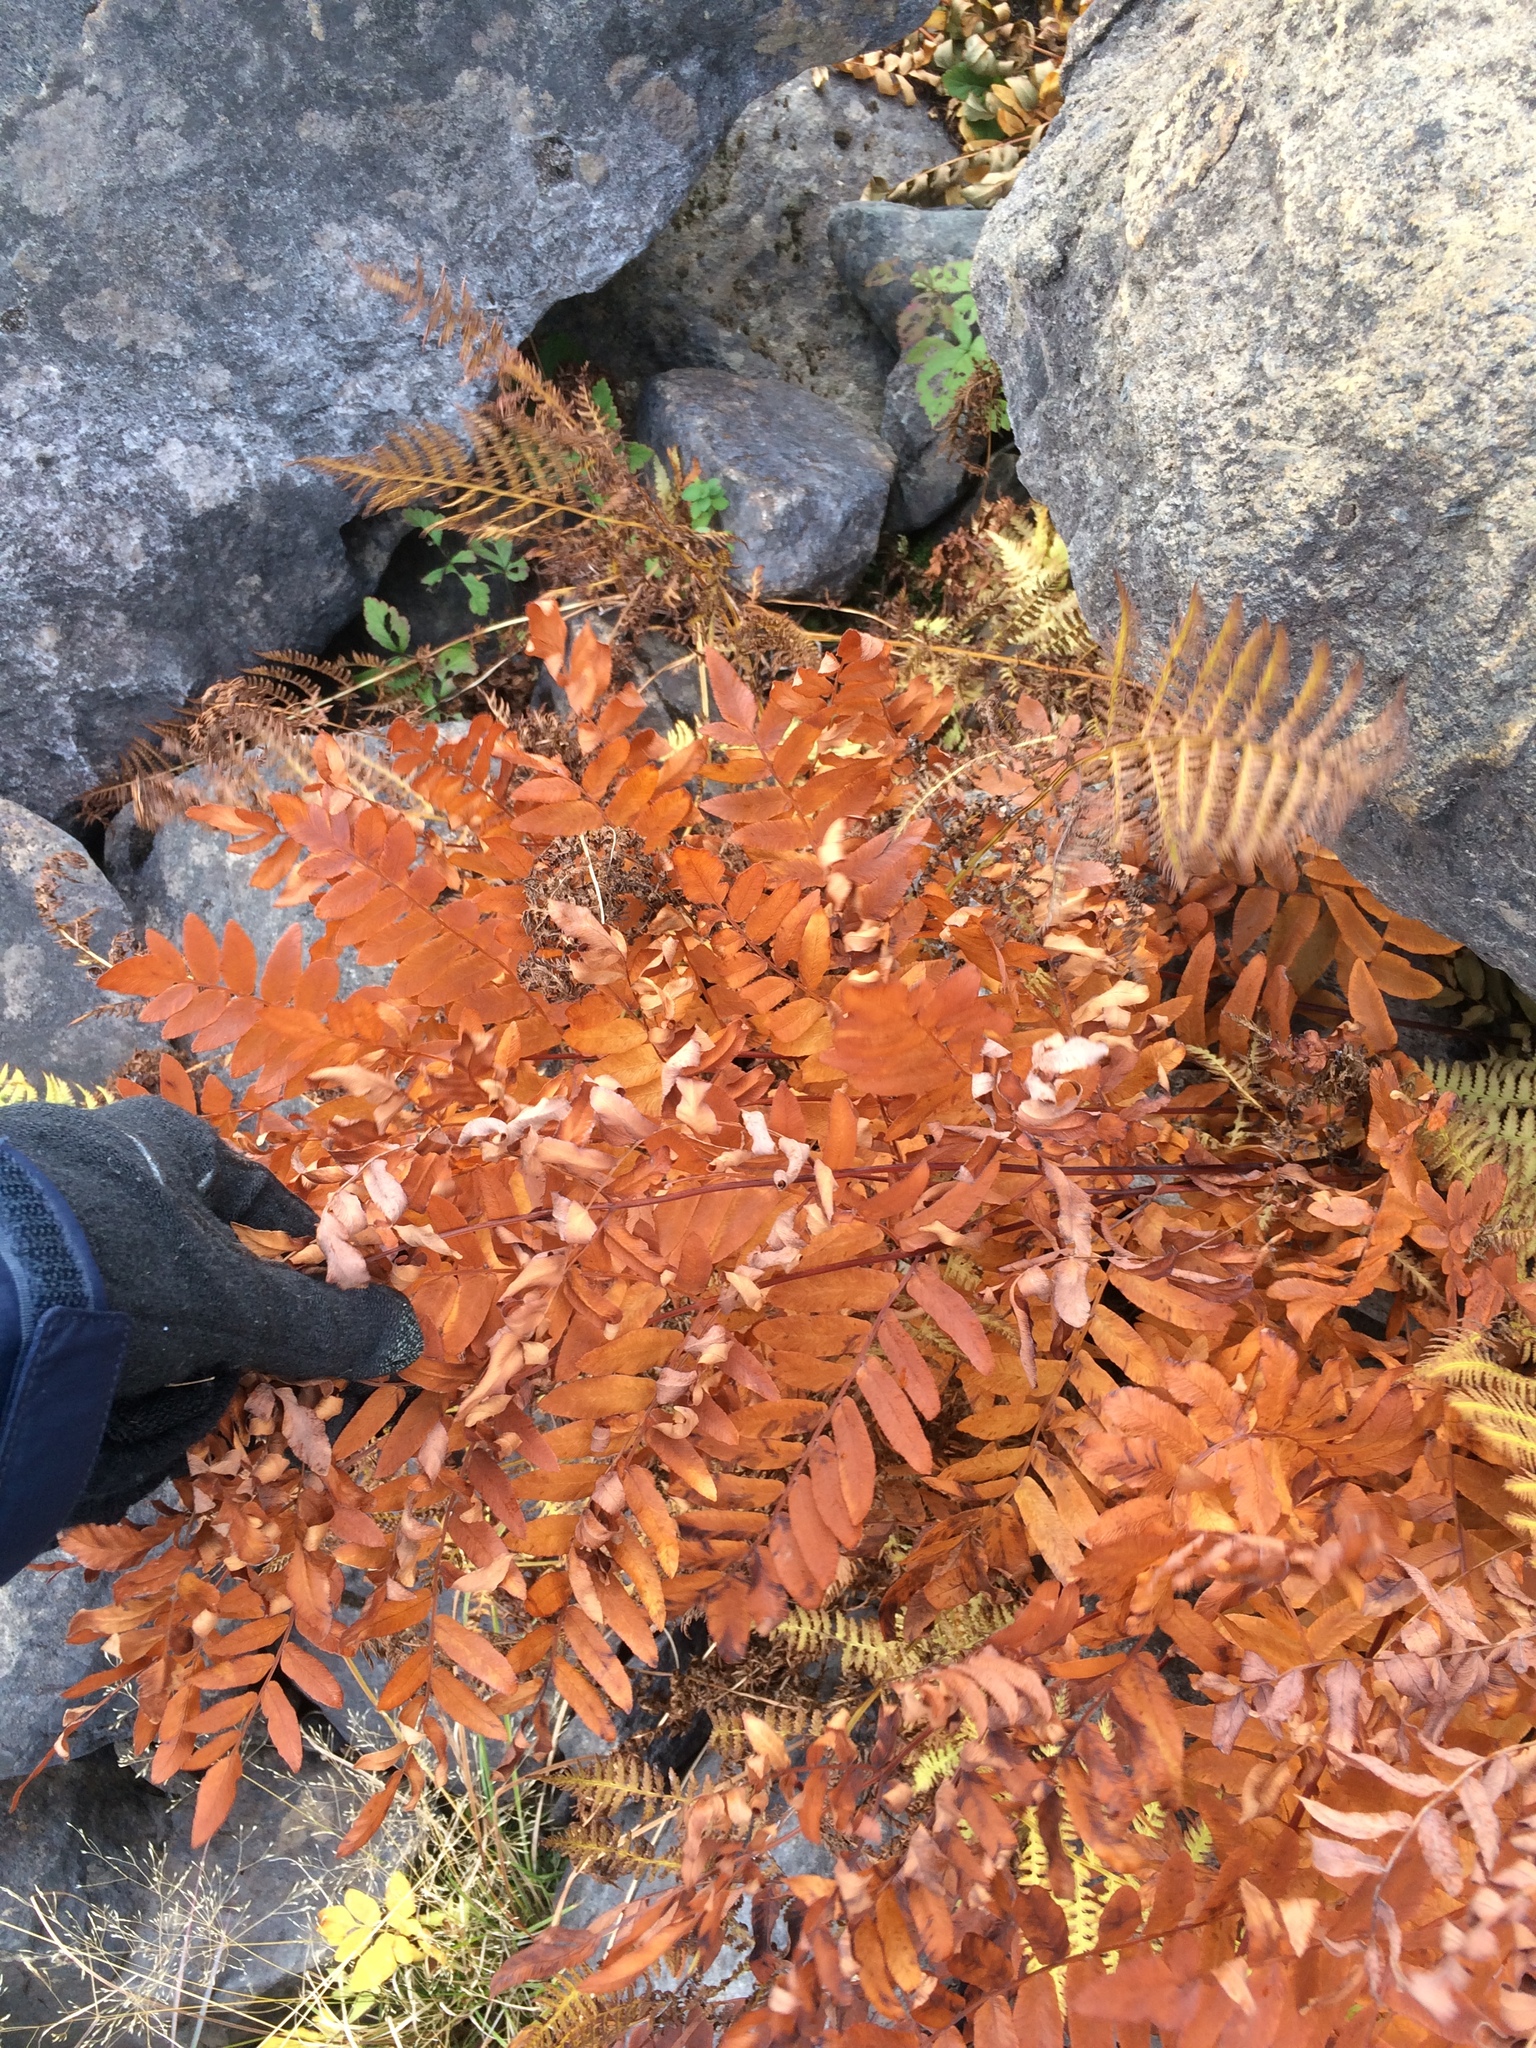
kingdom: Plantae
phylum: Tracheophyta
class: Polypodiopsida
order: Osmundales
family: Osmundaceae
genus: Osmunda
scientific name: Osmunda spectabilis
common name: American royal fern
